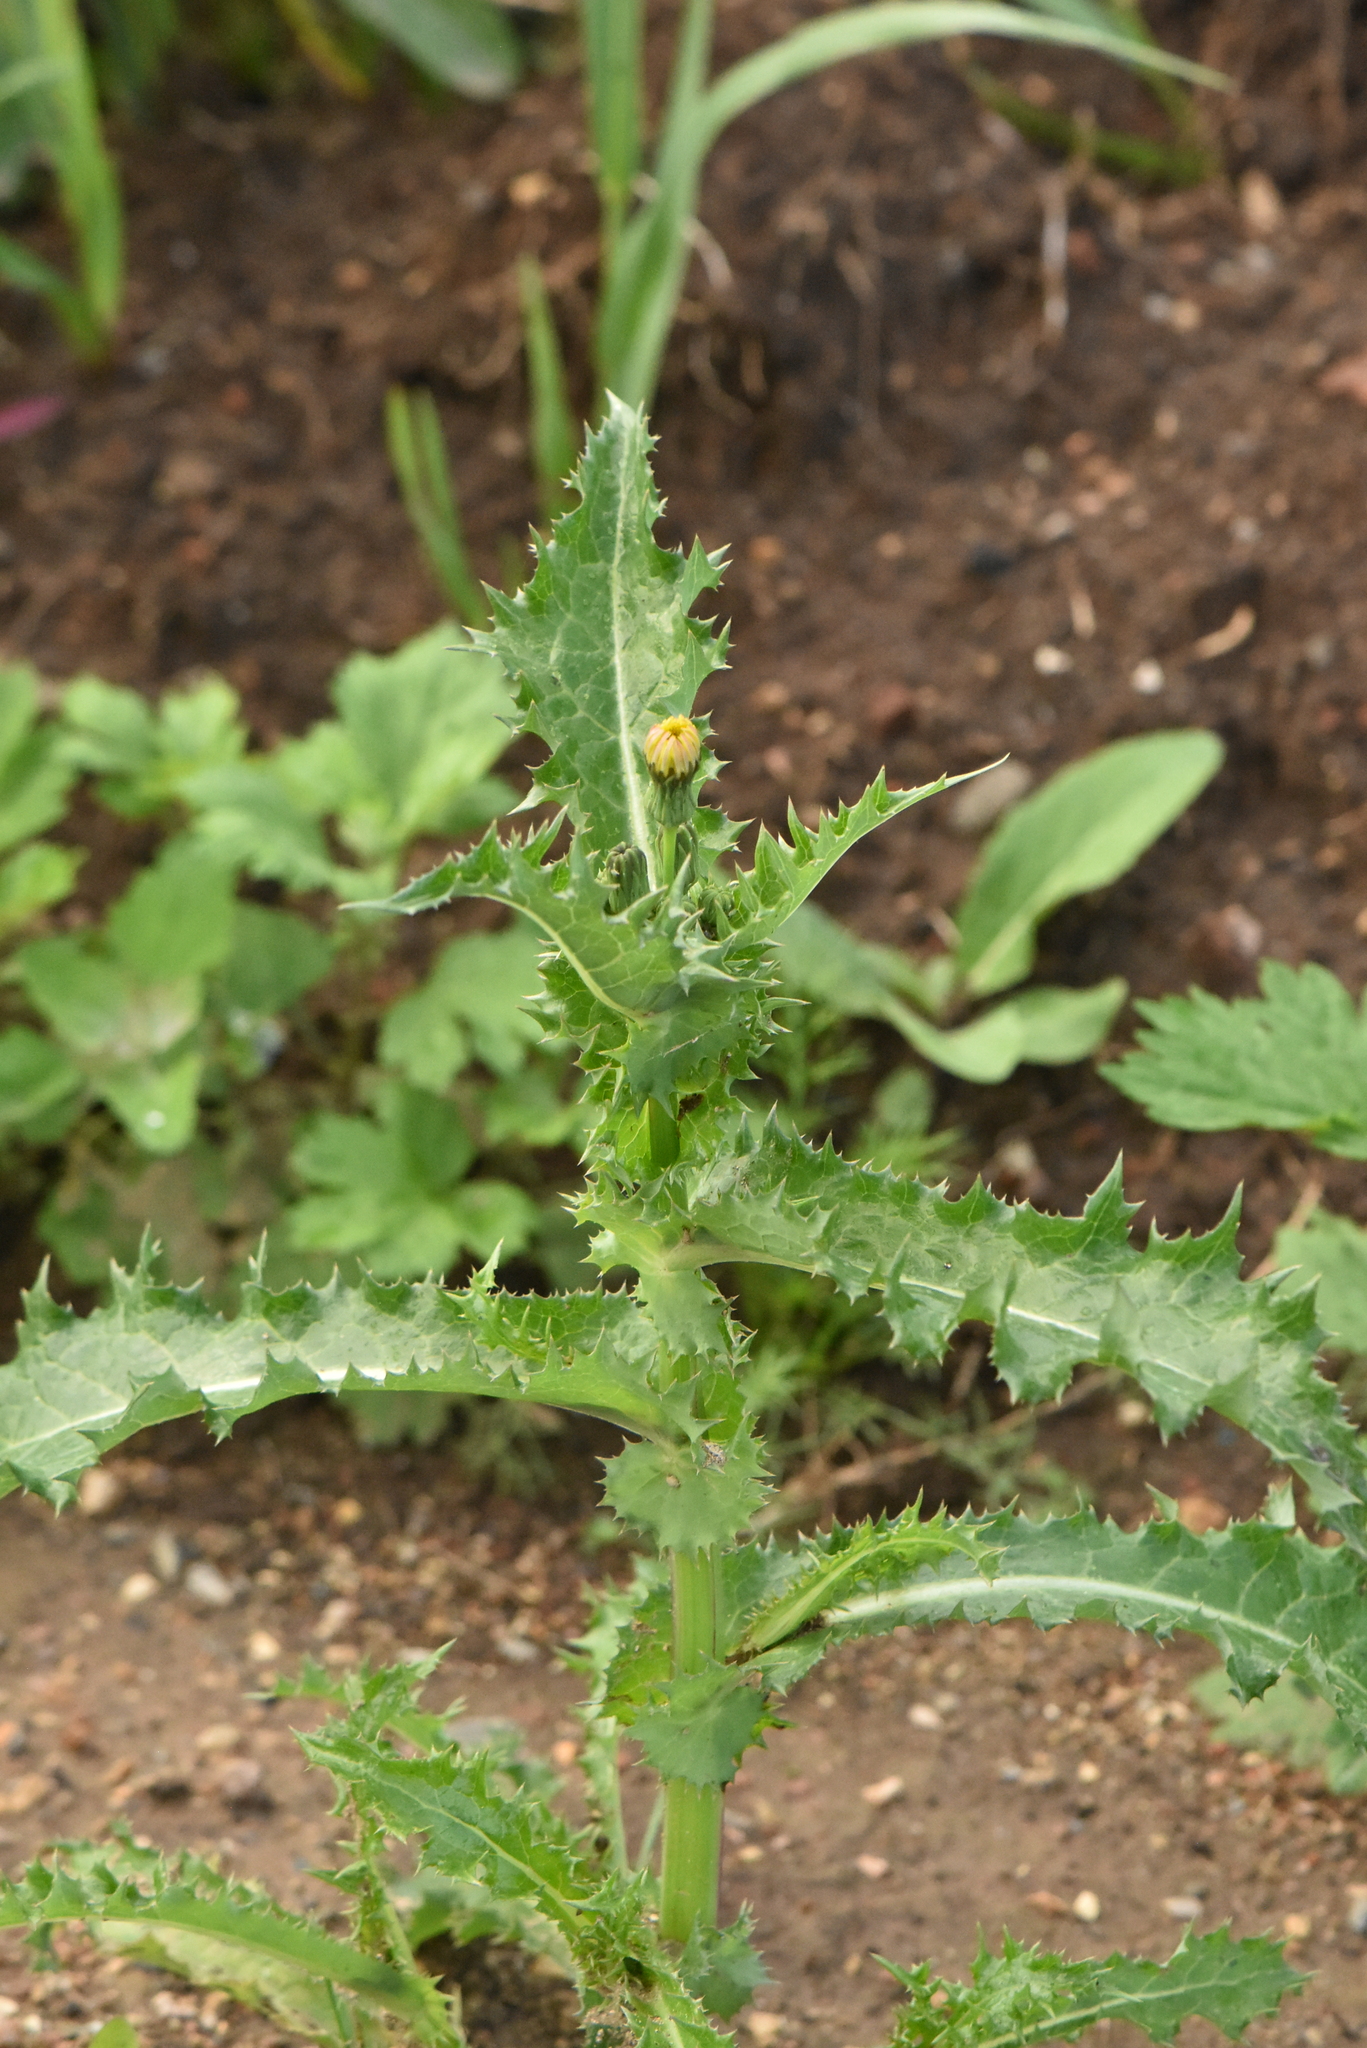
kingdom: Plantae
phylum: Tracheophyta
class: Magnoliopsida
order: Asterales
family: Asteraceae
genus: Sonchus
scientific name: Sonchus asper
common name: Prickly sow-thistle
